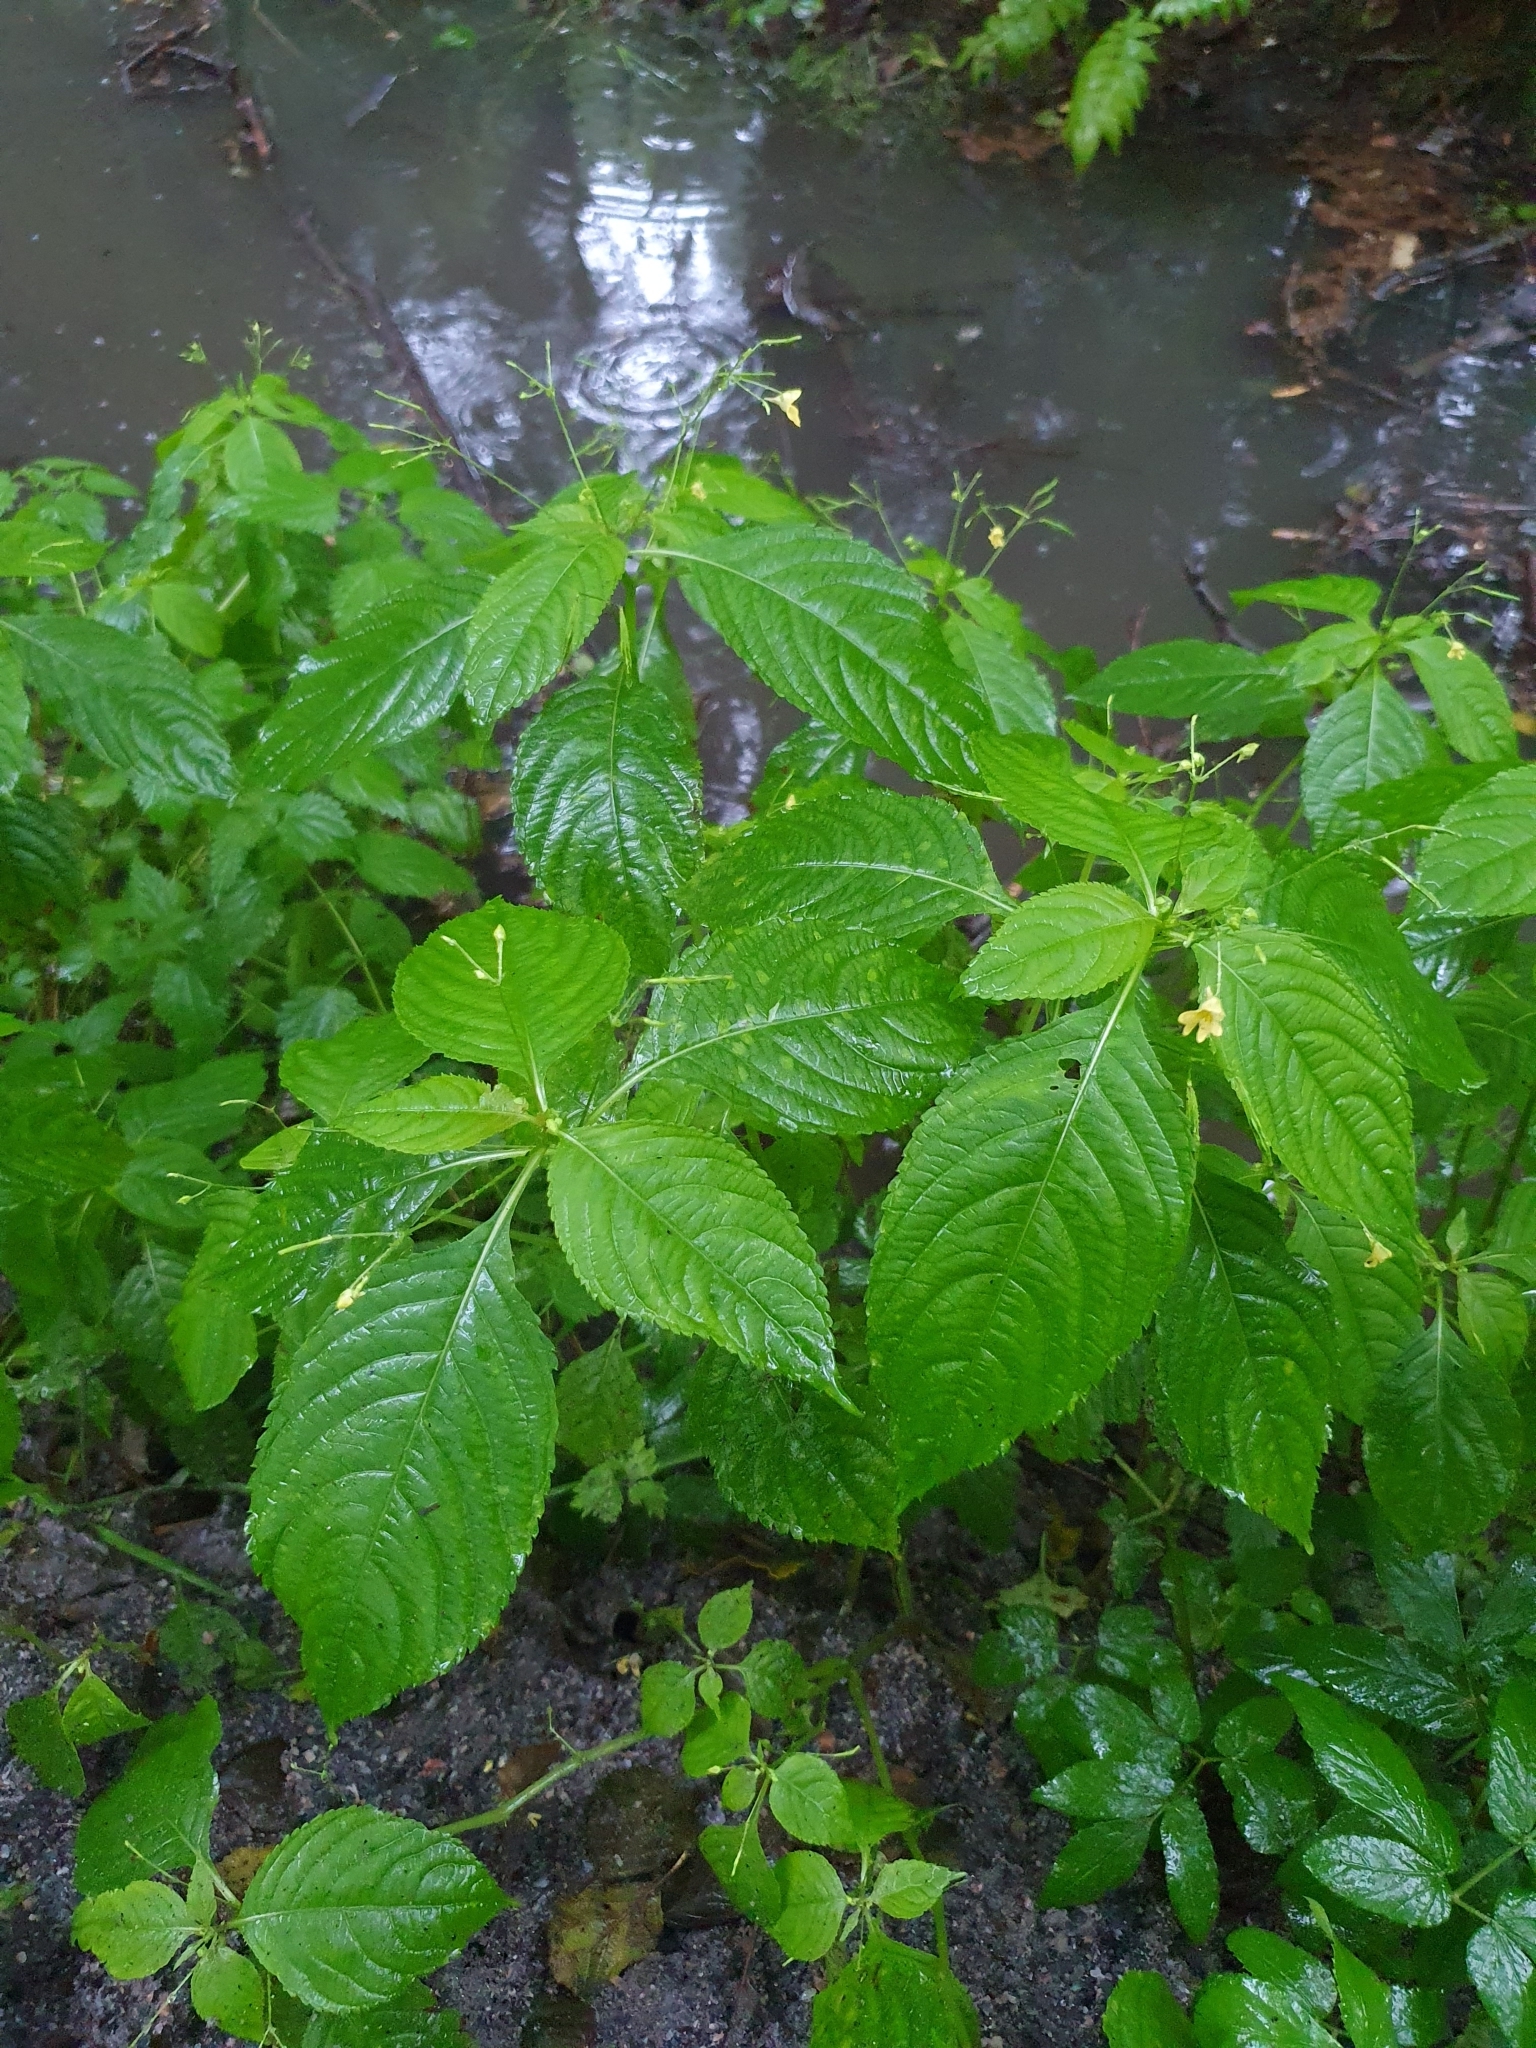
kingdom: Plantae
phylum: Tracheophyta
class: Magnoliopsida
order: Ericales
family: Balsaminaceae
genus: Impatiens
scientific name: Impatiens parviflora
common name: Small balsam
